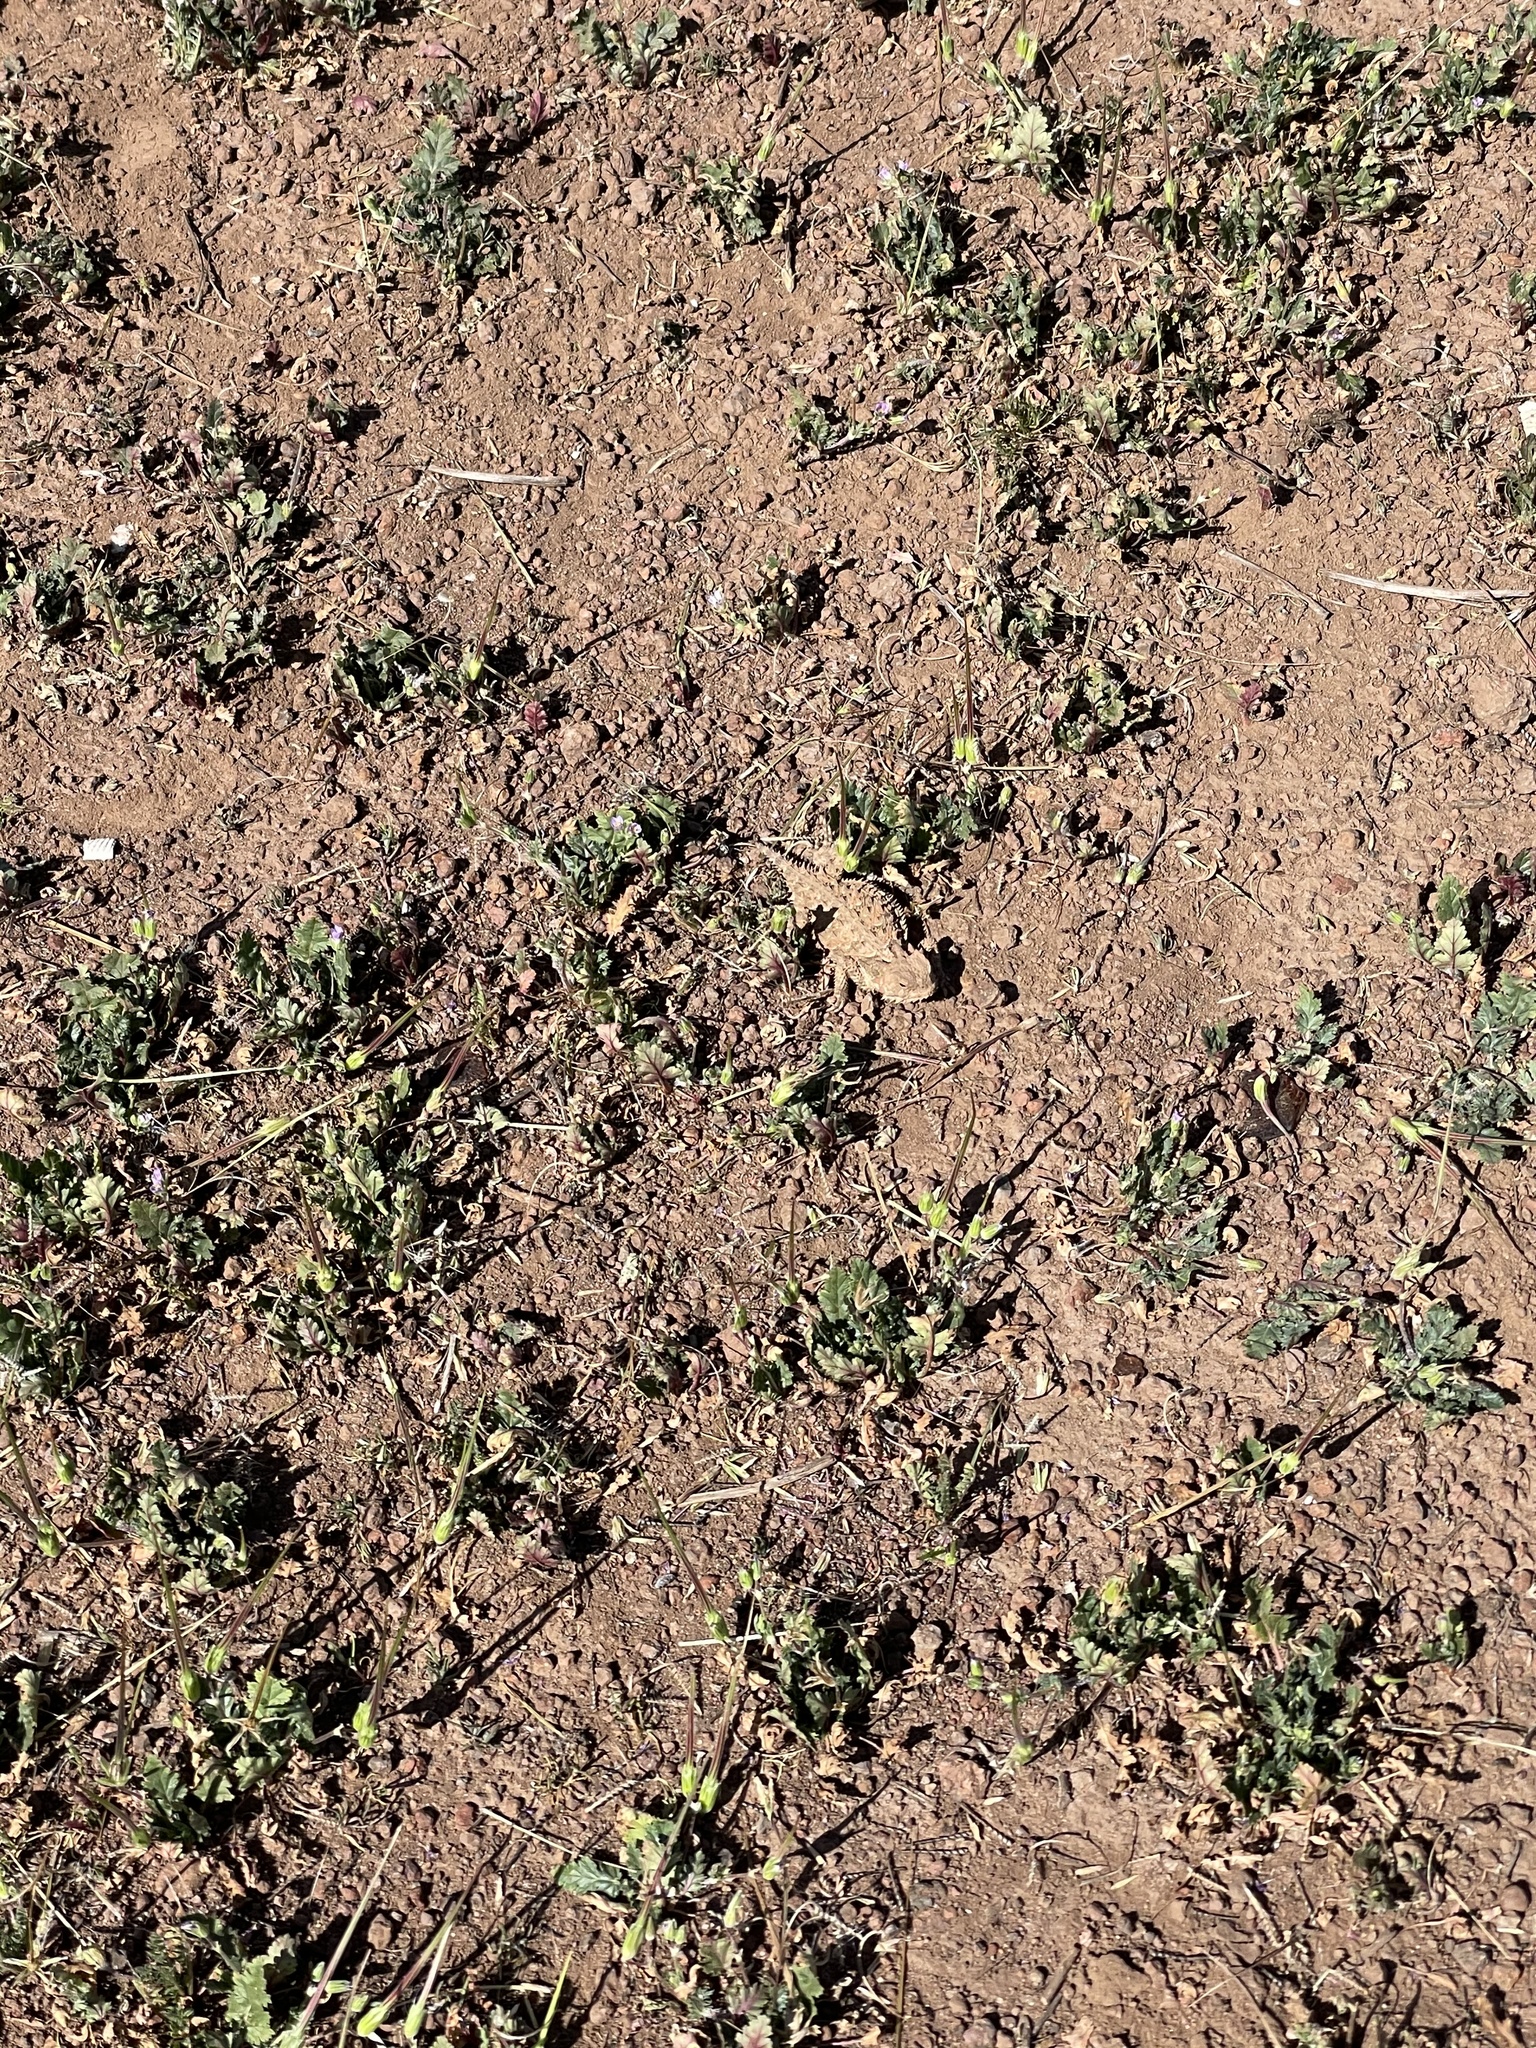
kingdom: Animalia
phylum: Chordata
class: Squamata
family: Phrynosomatidae
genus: Phrynosoma
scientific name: Phrynosoma blainvillii
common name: San diego horned lizard
